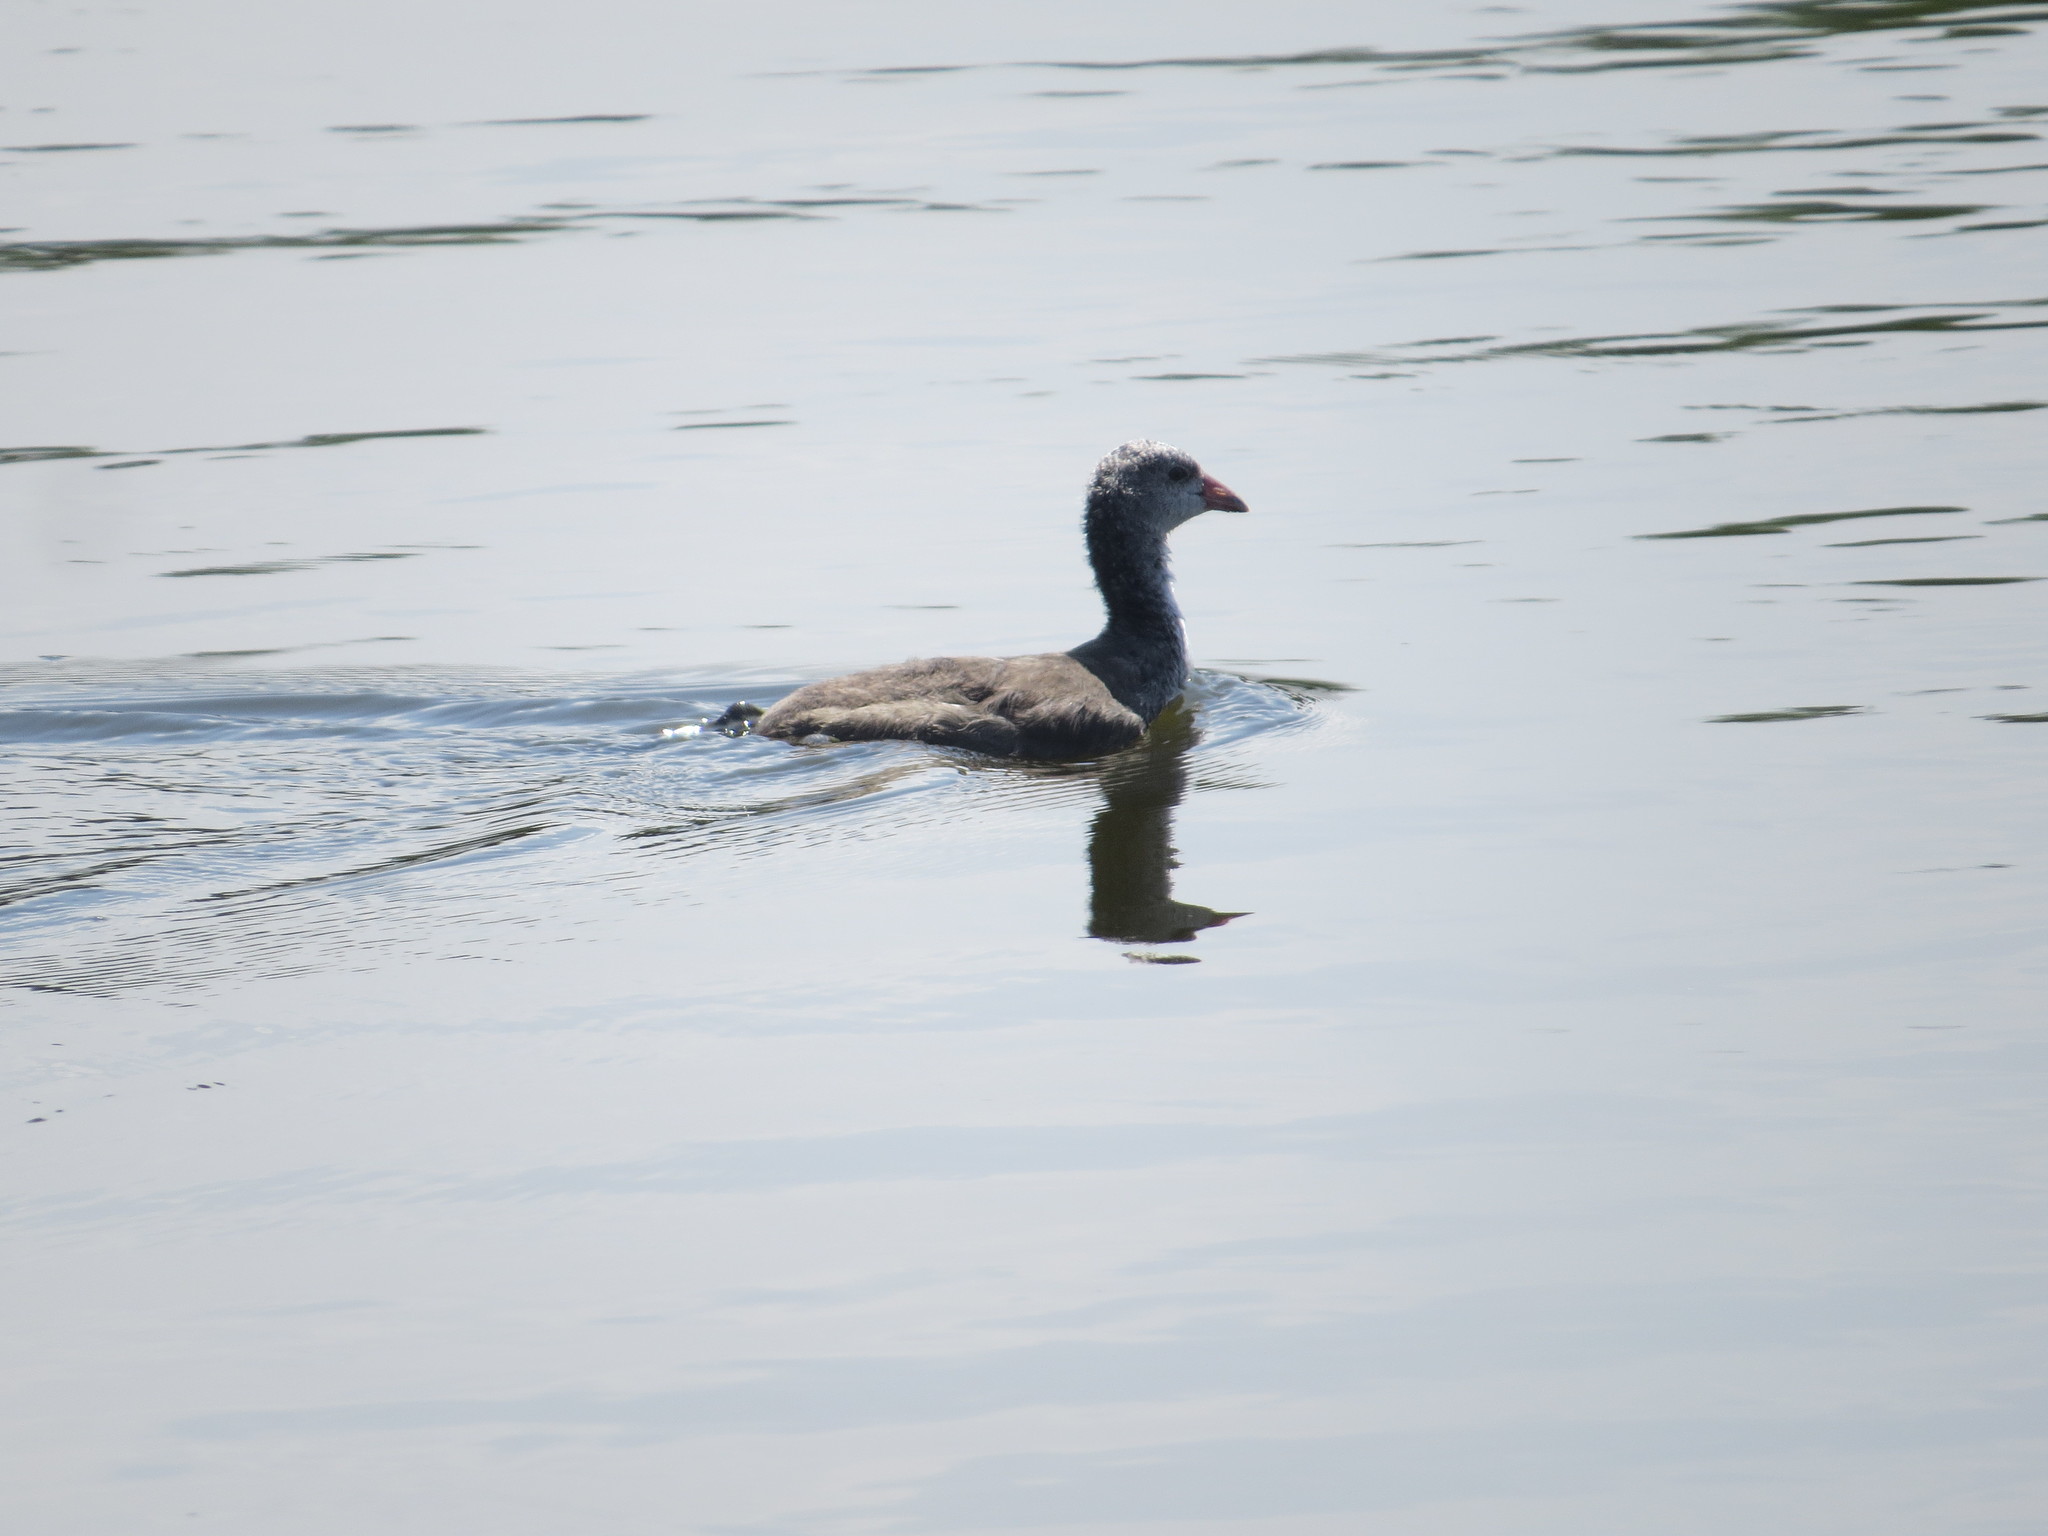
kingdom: Animalia
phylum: Chordata
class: Aves
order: Gruiformes
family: Rallidae
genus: Fulica
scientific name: Fulica americana
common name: American coot
